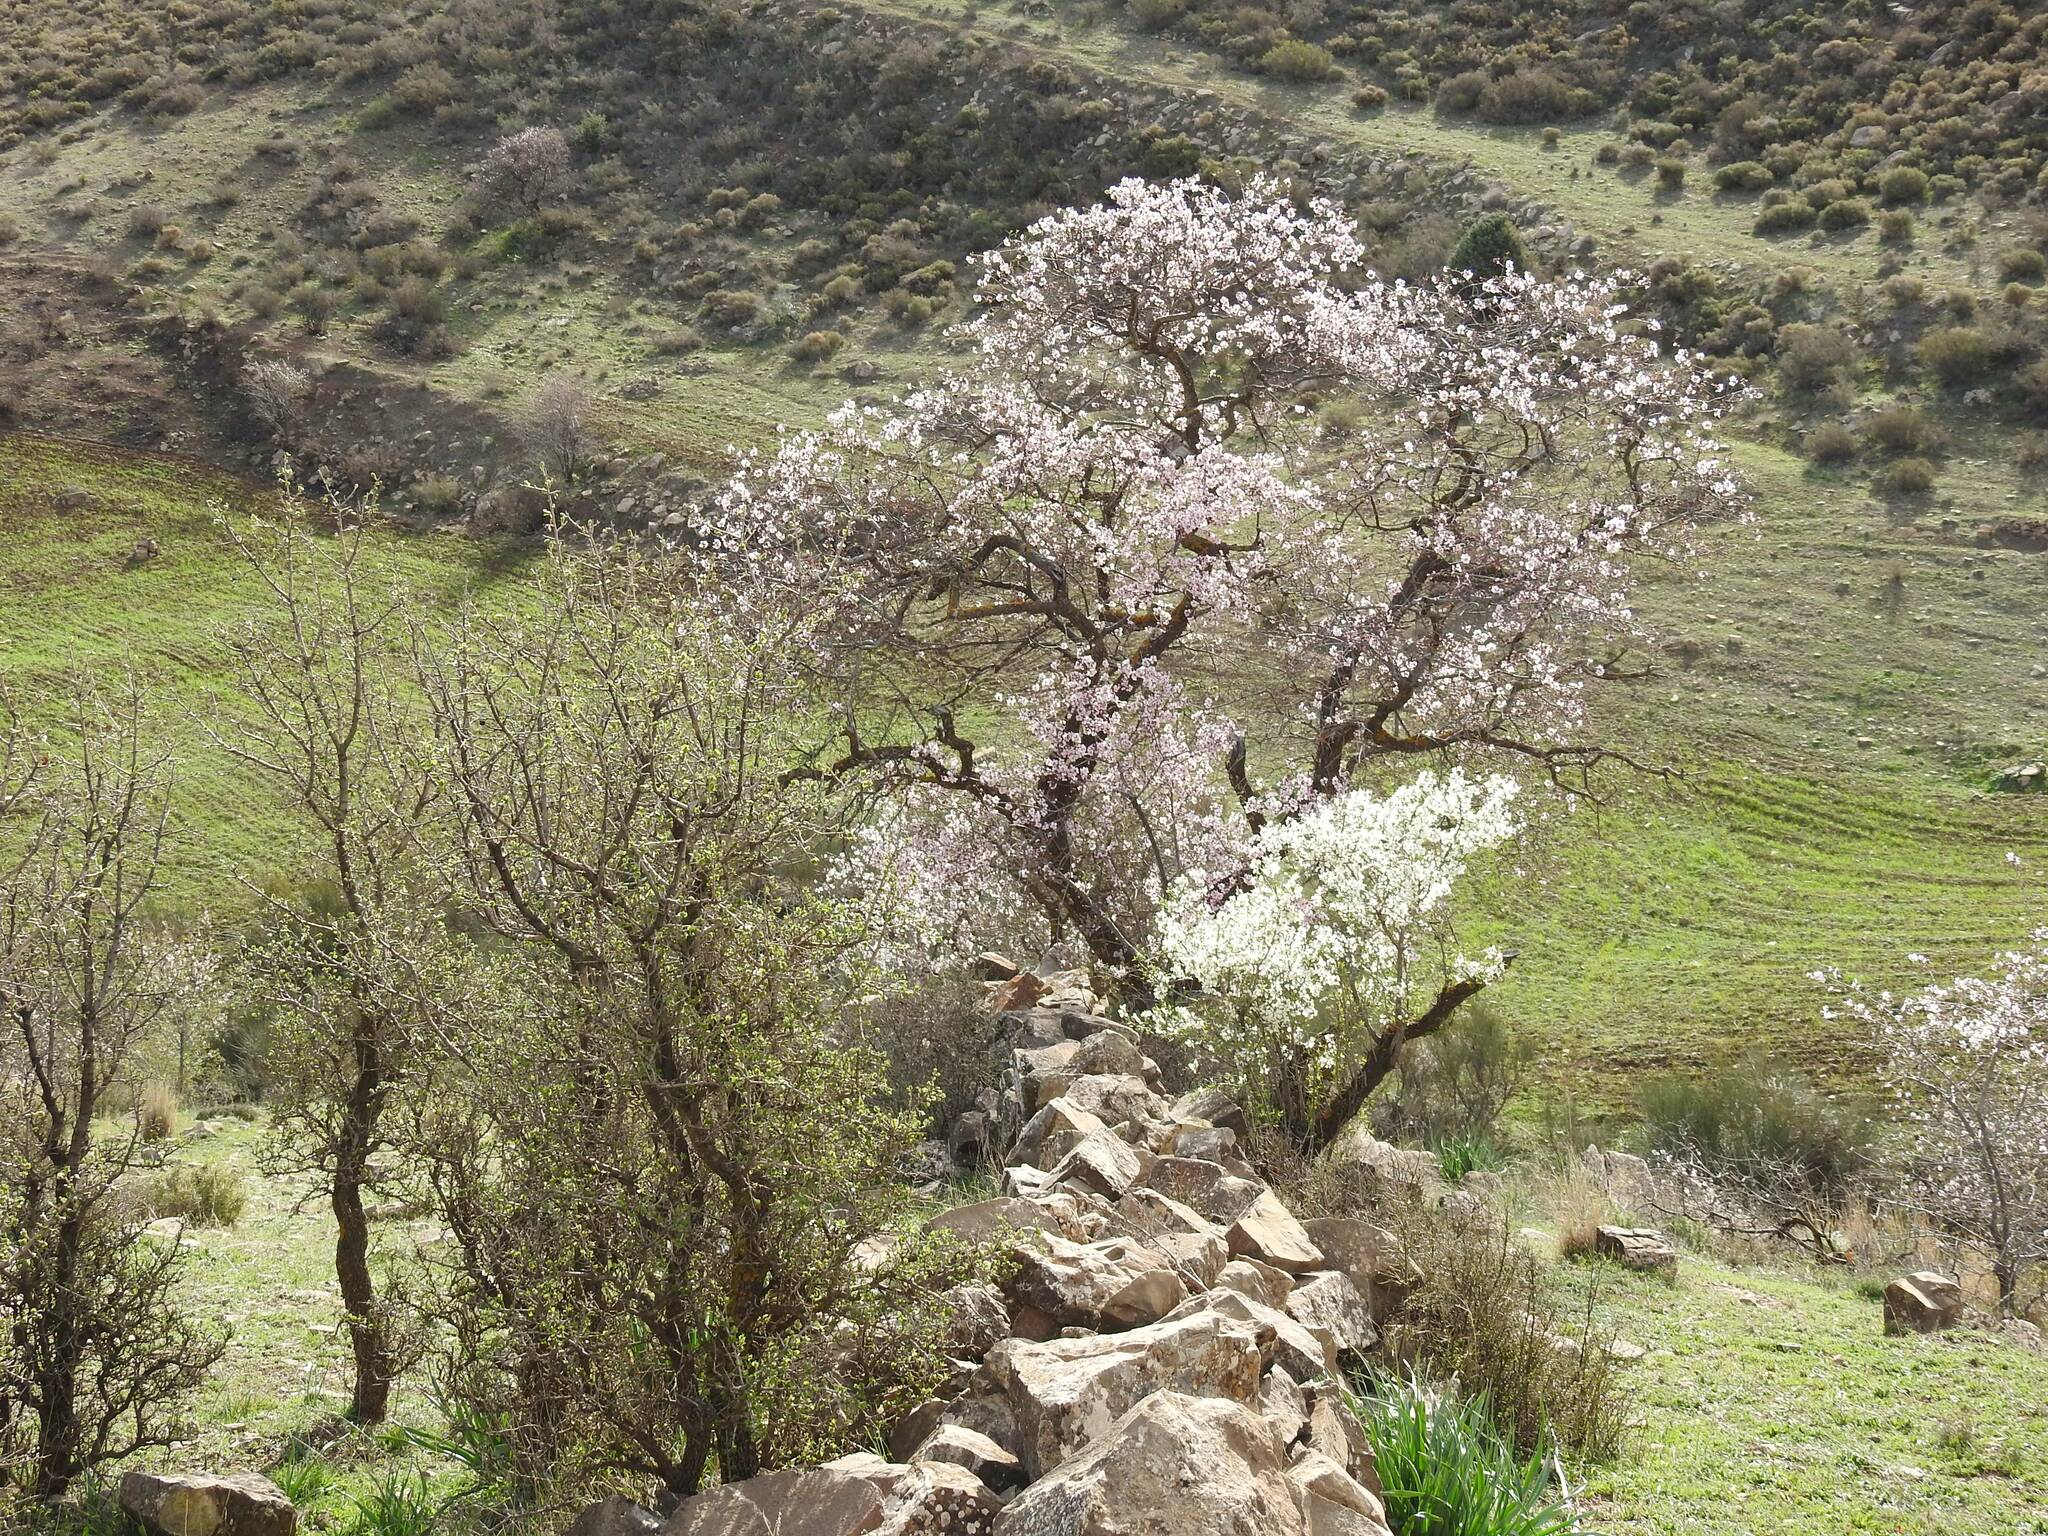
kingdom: Plantae
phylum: Tracheophyta
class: Magnoliopsida
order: Rosales
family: Rosaceae
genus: Prunus
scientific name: Prunus amygdalus
